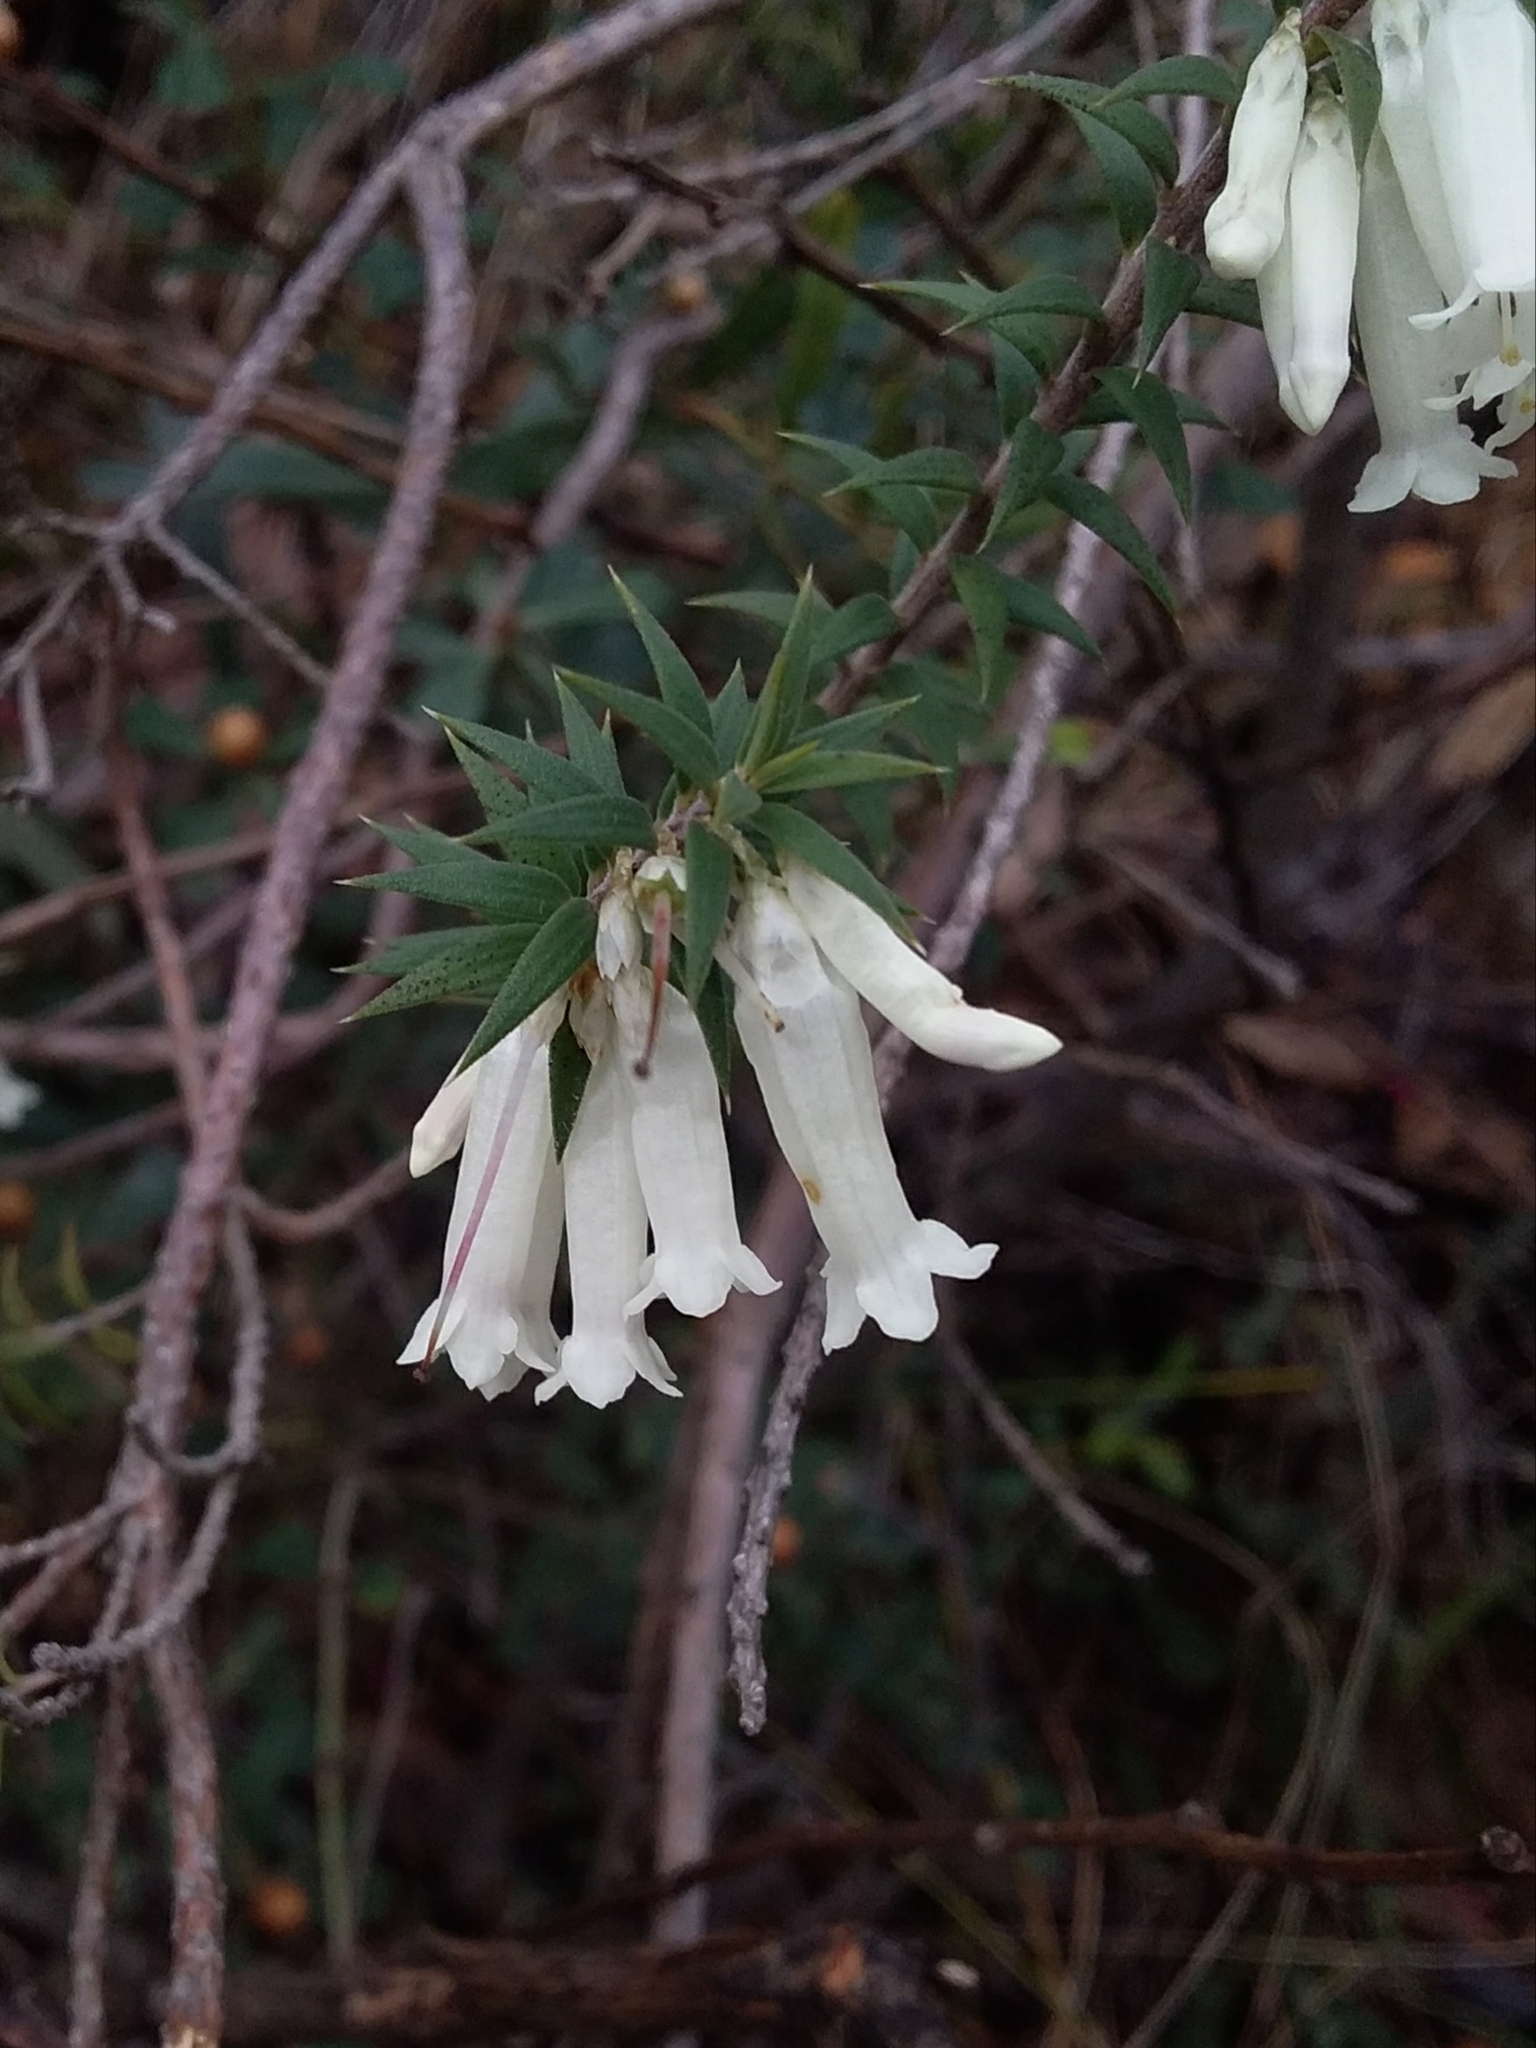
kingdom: Plantae
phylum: Tracheophyta
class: Magnoliopsida
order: Ericales
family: Ericaceae
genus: Epacris
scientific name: Epacris impressa
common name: Common-heath
